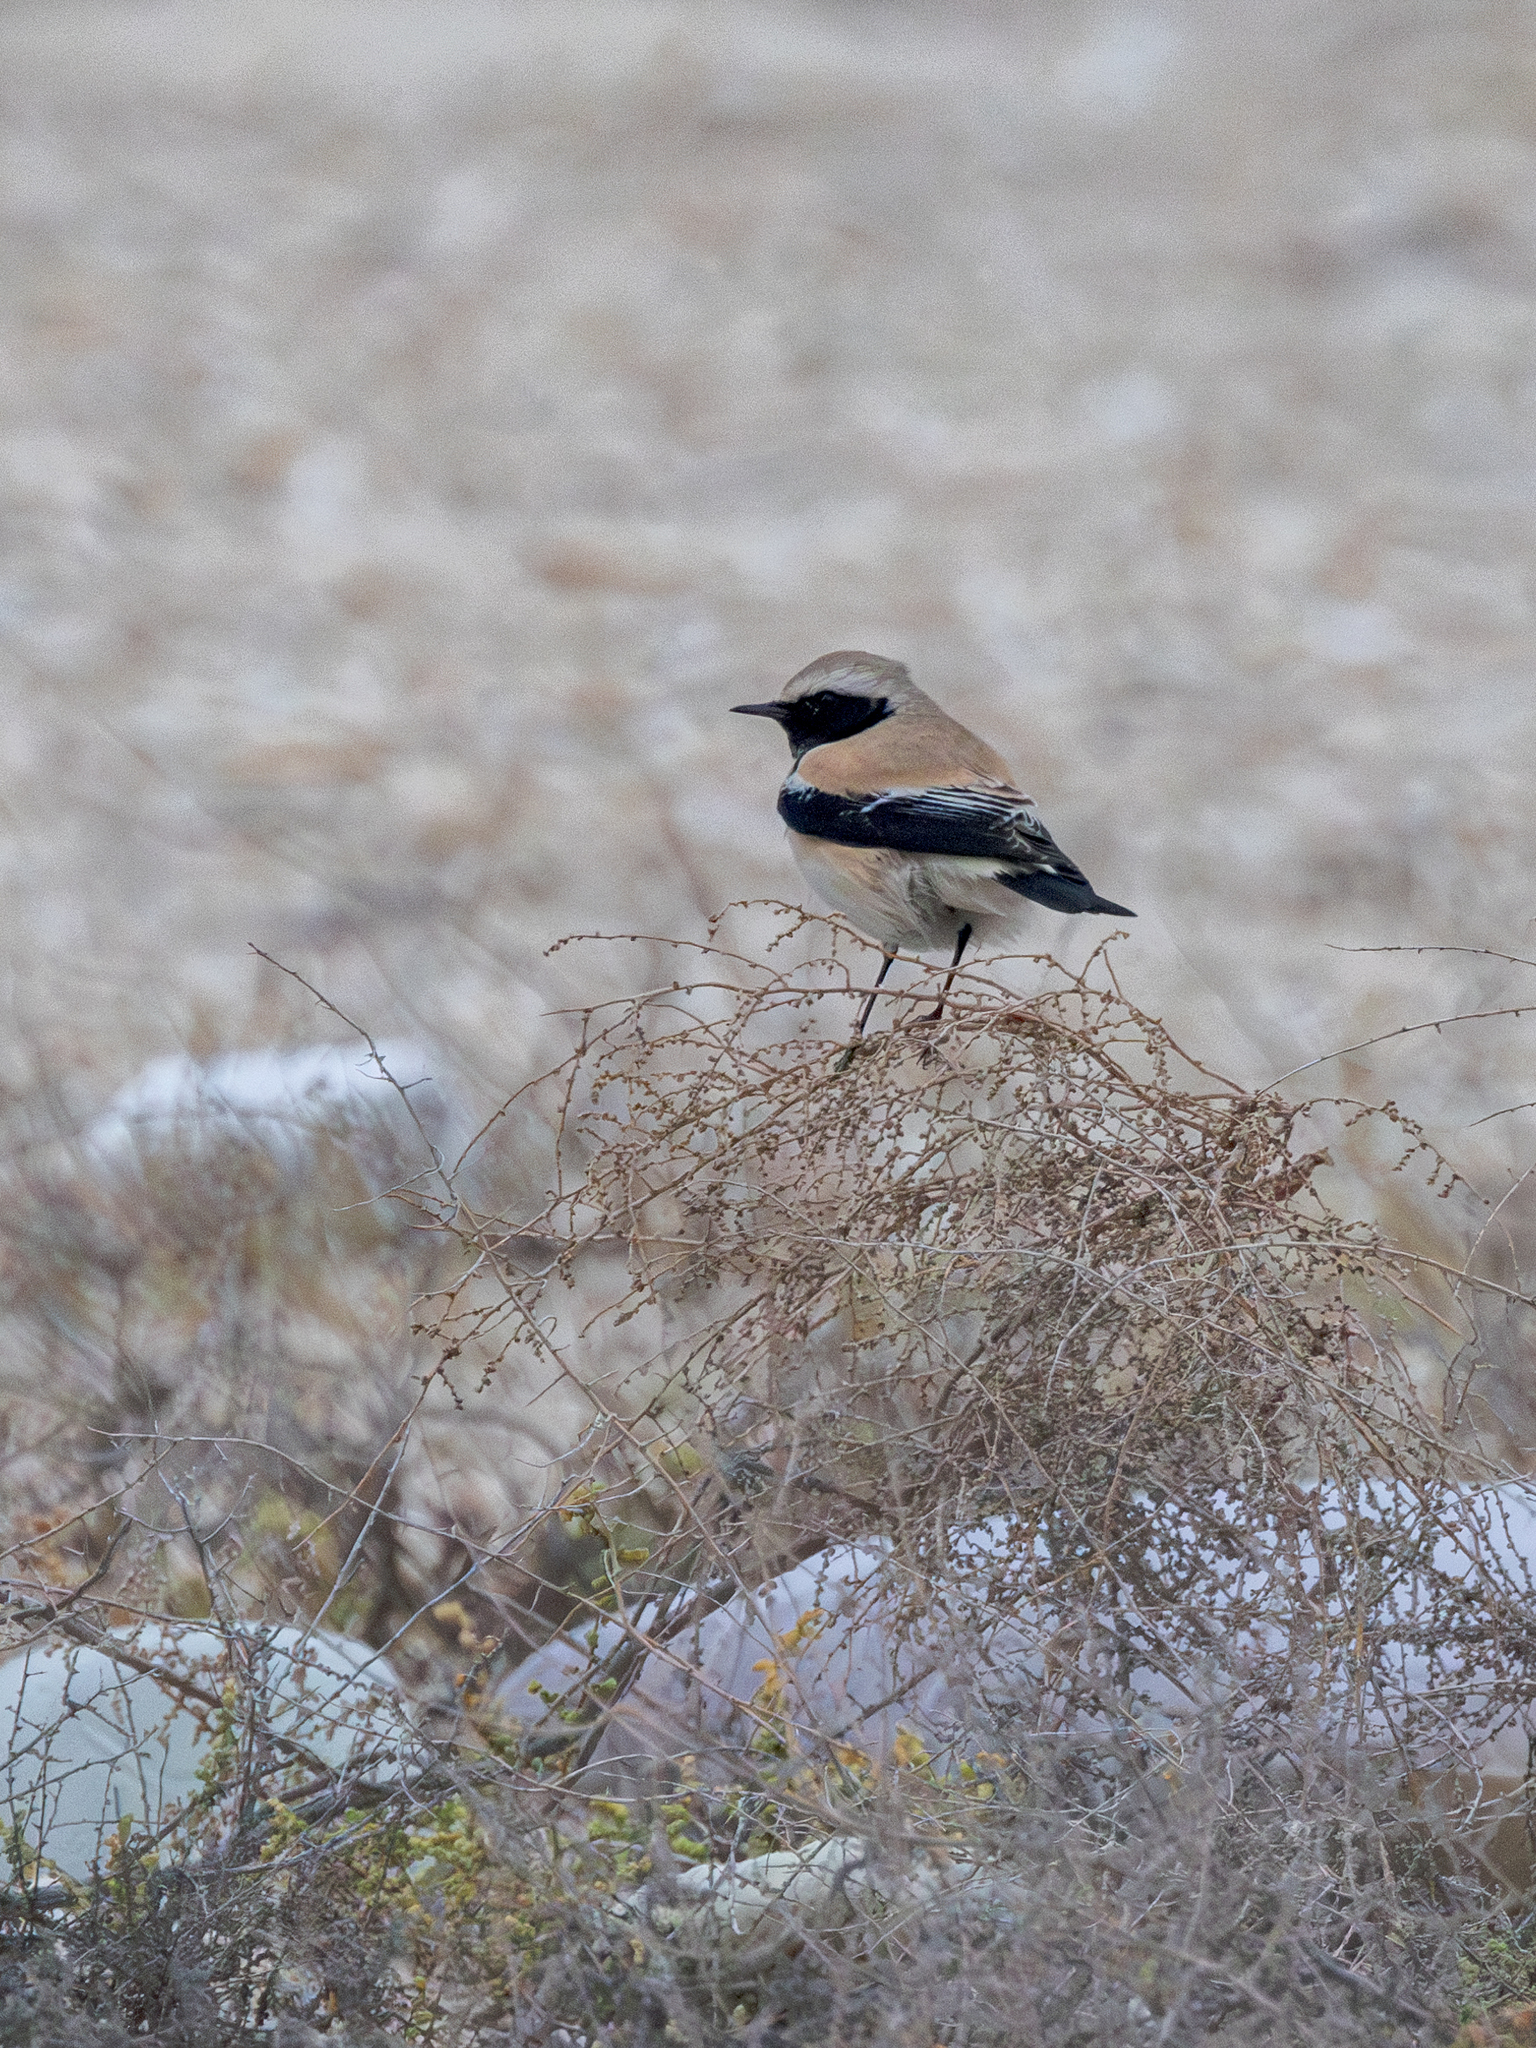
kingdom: Animalia
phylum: Chordata
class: Aves
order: Passeriformes
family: Muscicapidae
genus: Oenanthe
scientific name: Oenanthe deserti
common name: Desert wheatear
